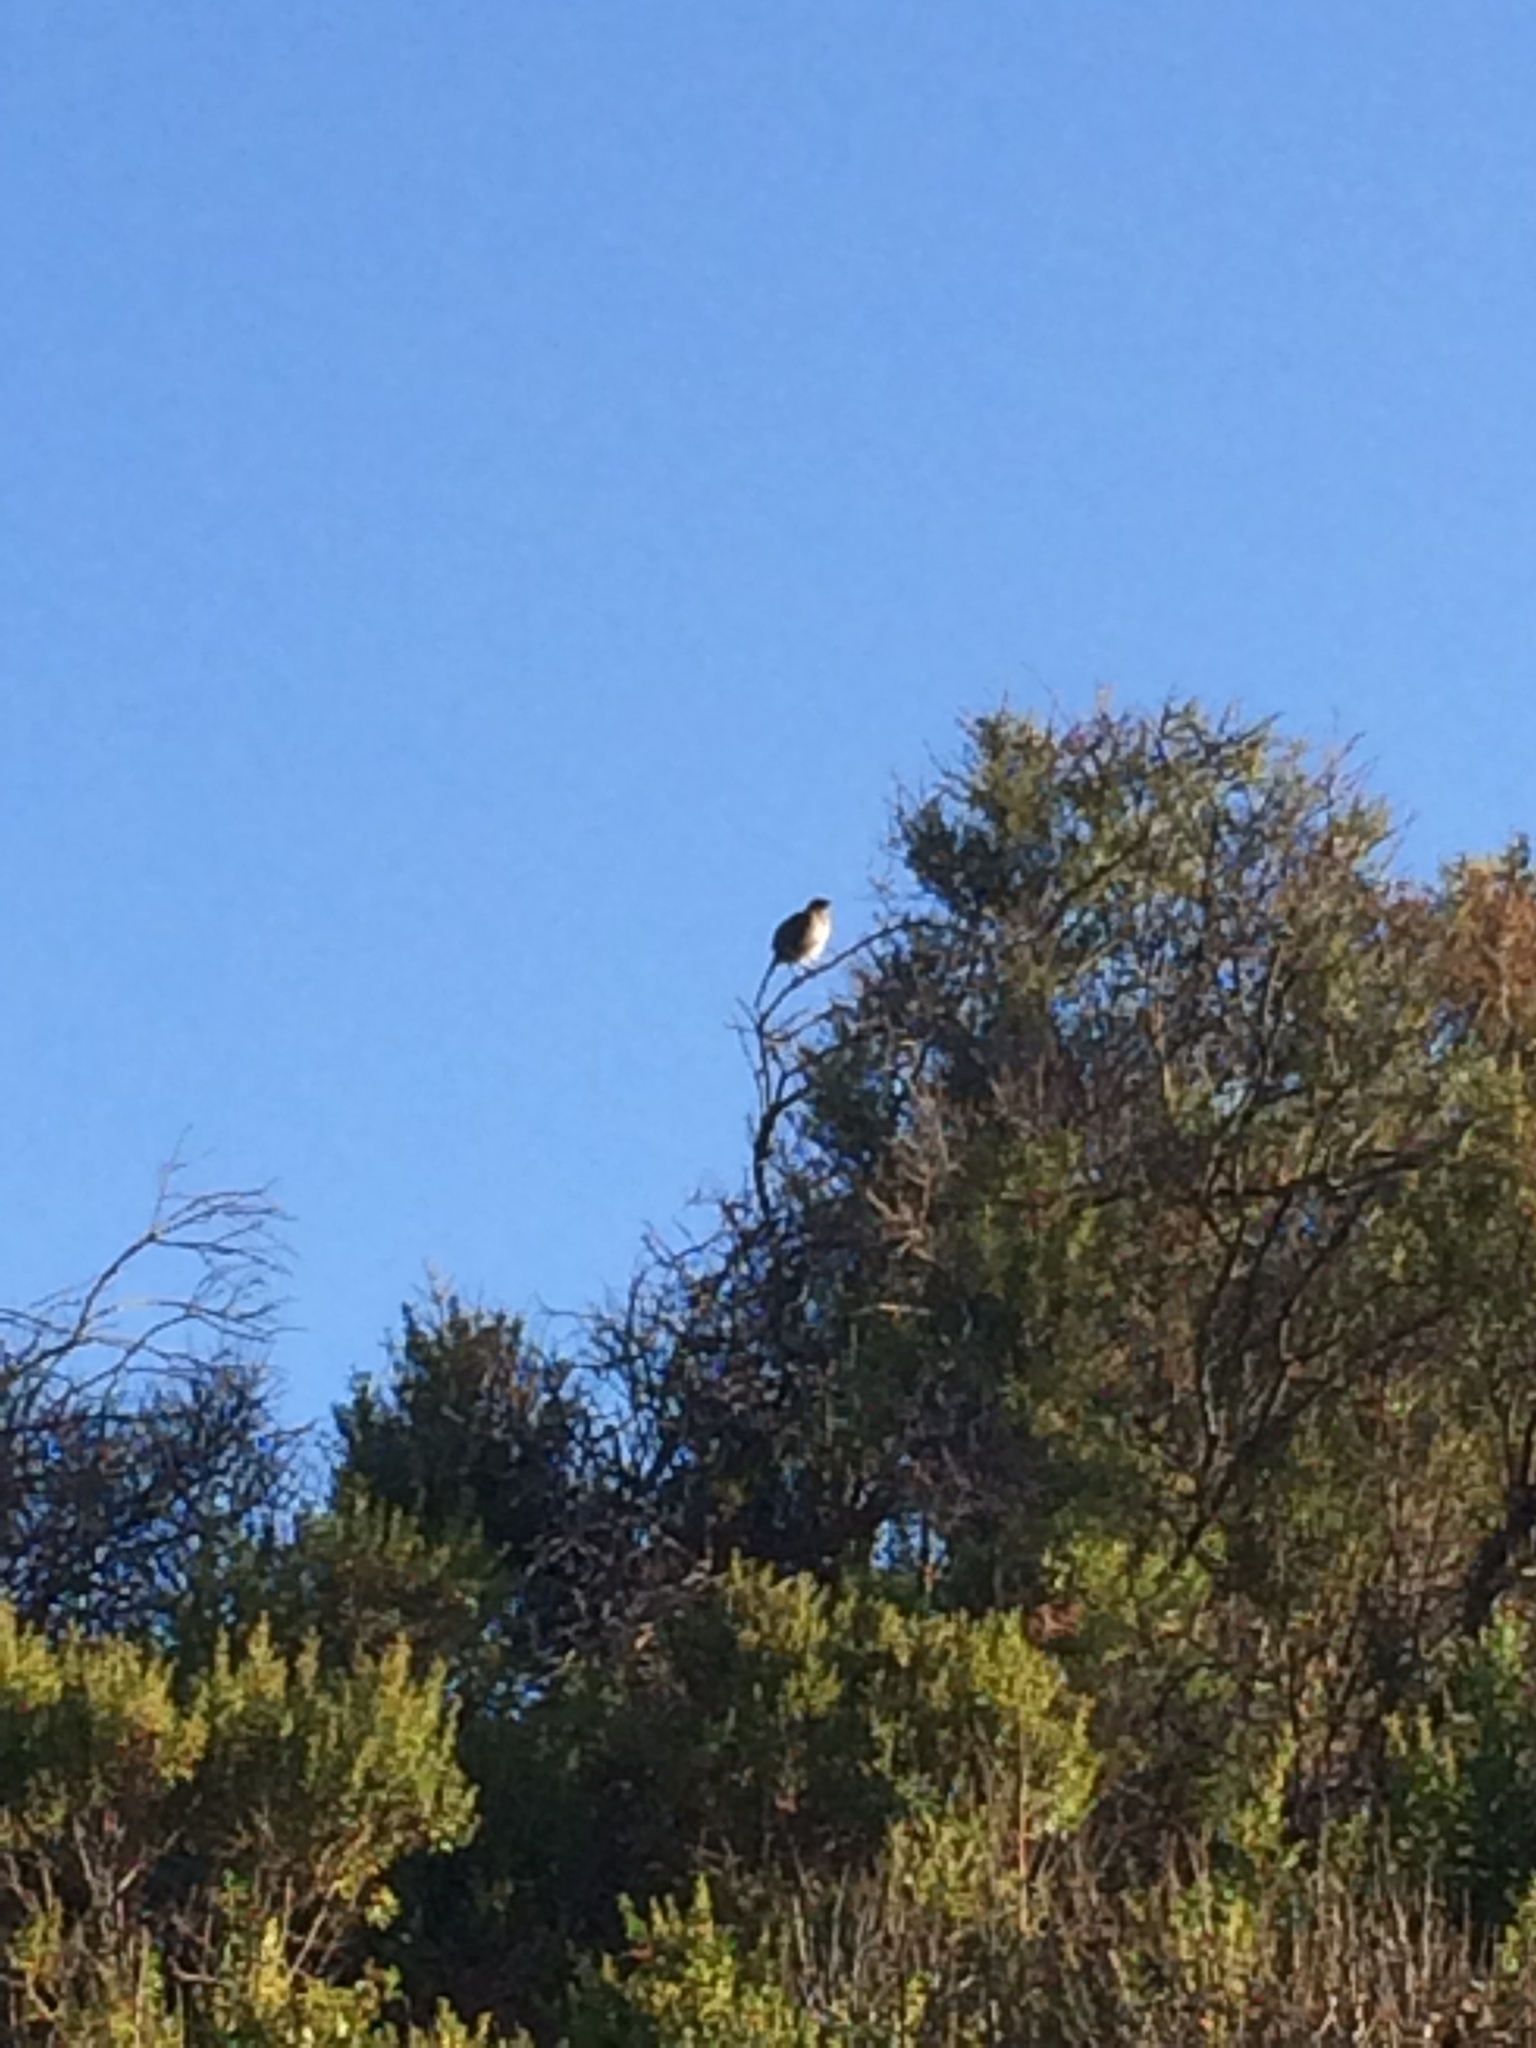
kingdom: Animalia
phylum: Chordata
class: Aves
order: Passeriformes
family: Mimidae
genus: Mimus
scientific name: Mimus polyglottos
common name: Northern mockingbird
